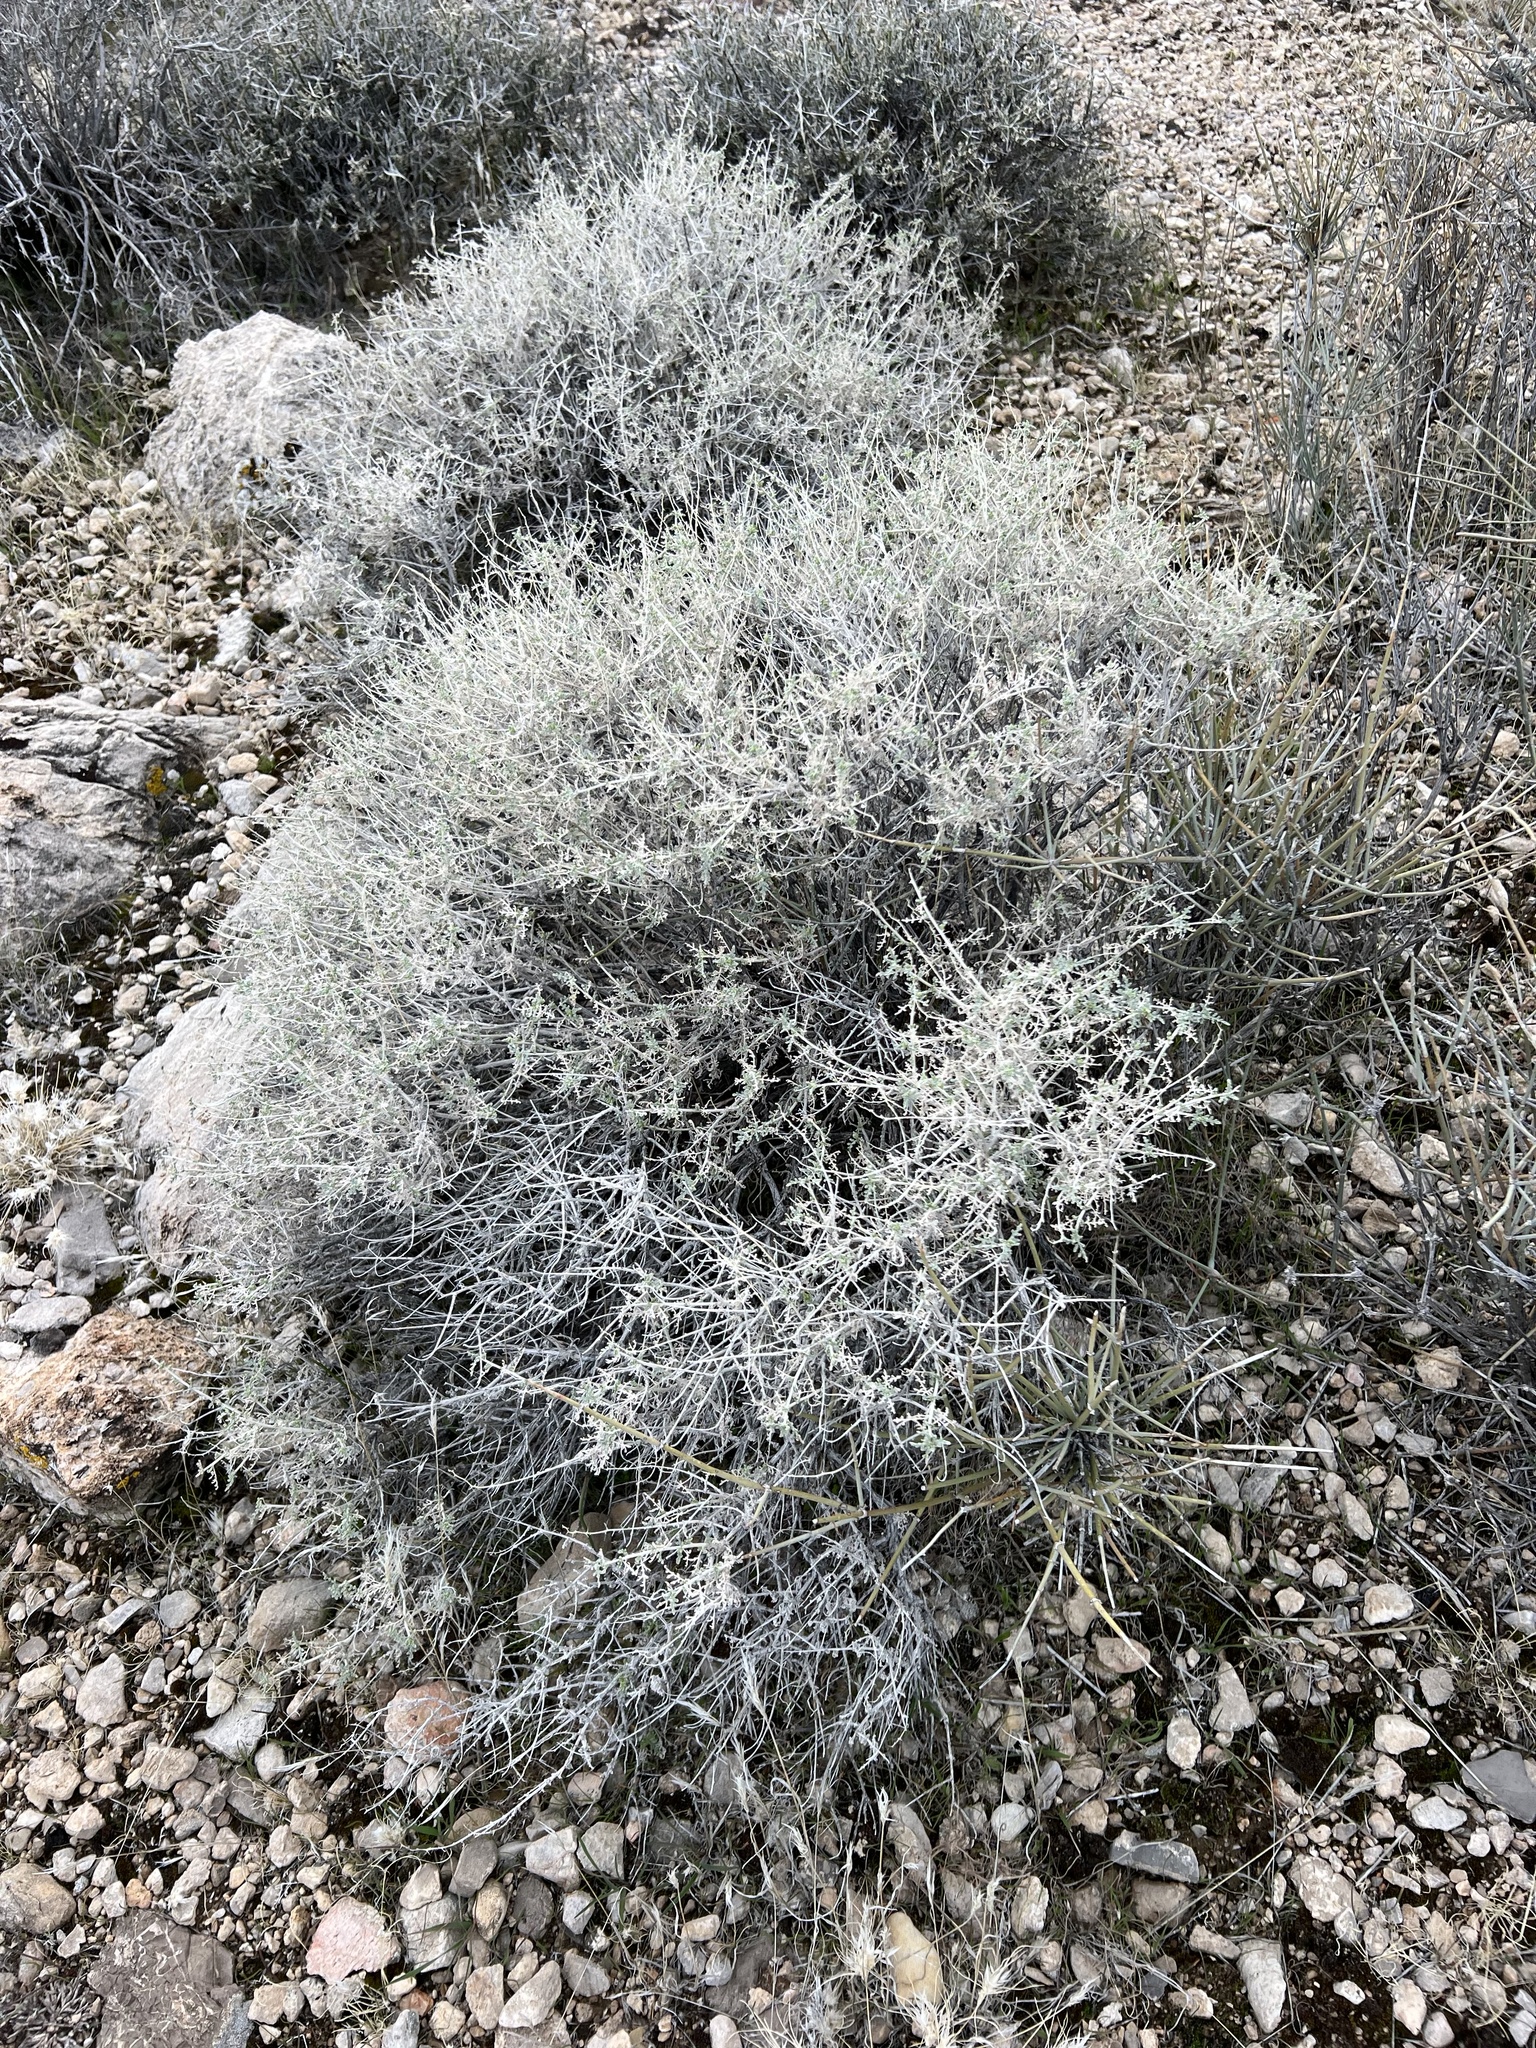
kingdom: Plantae
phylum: Tracheophyta
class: Magnoliopsida
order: Asterales
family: Asteraceae
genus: Ambrosia
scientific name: Ambrosia dumosa
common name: Bur-sage
